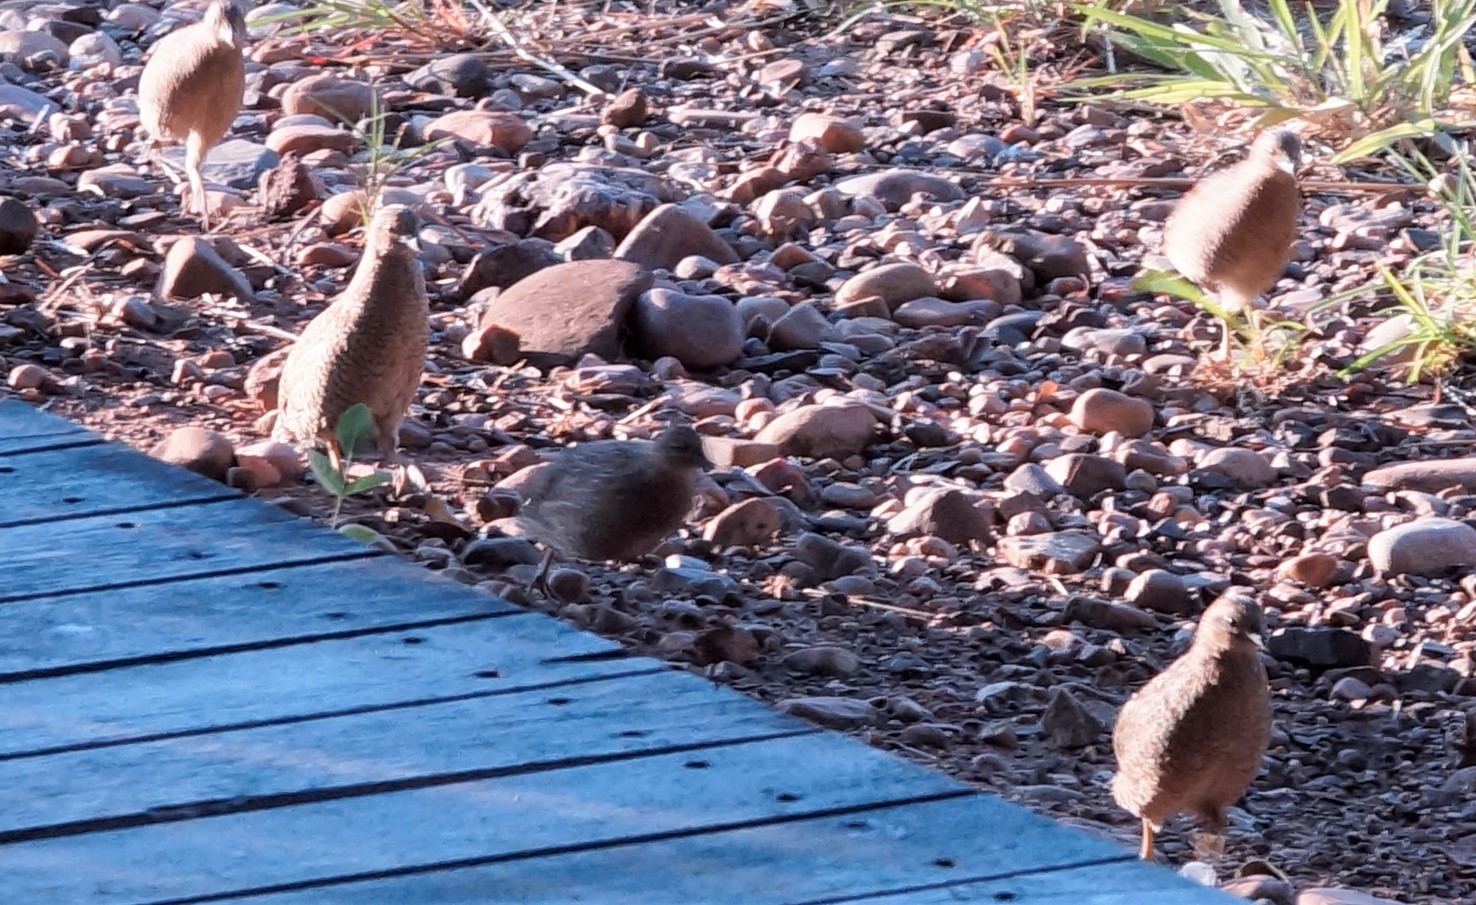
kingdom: Animalia
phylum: Chordata
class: Aves
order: Galliformes
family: Phasianidae
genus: Synoicus
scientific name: Synoicus ypsilophorus
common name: Brown quail
